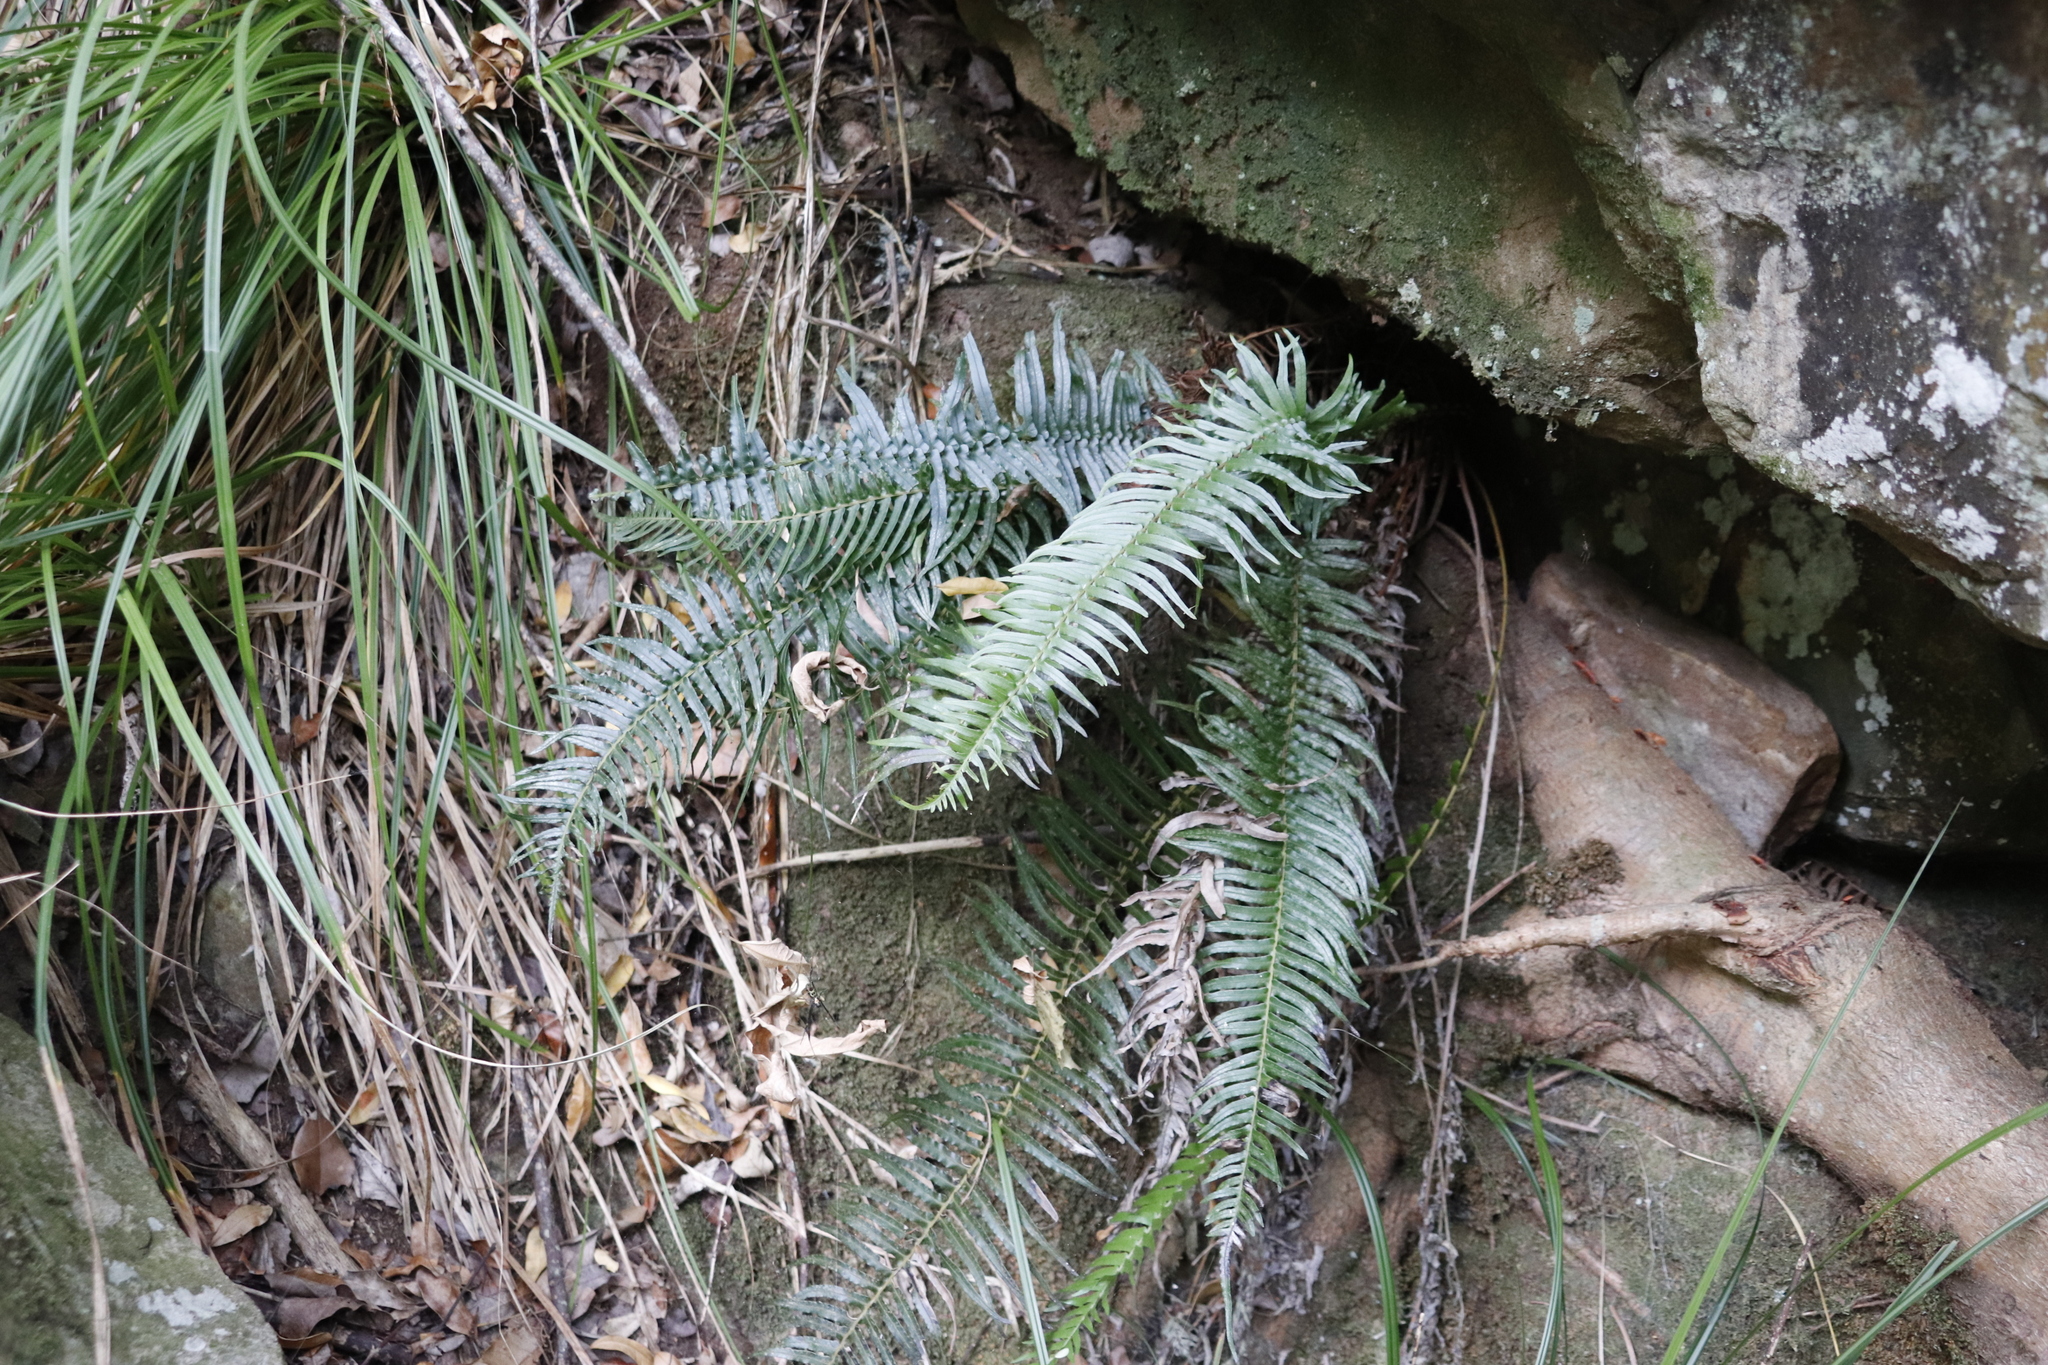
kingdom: Plantae
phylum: Tracheophyta
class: Polypodiopsida
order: Polypodiales
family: Blechnaceae
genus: Blechnum
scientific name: Blechnum punctulatum
